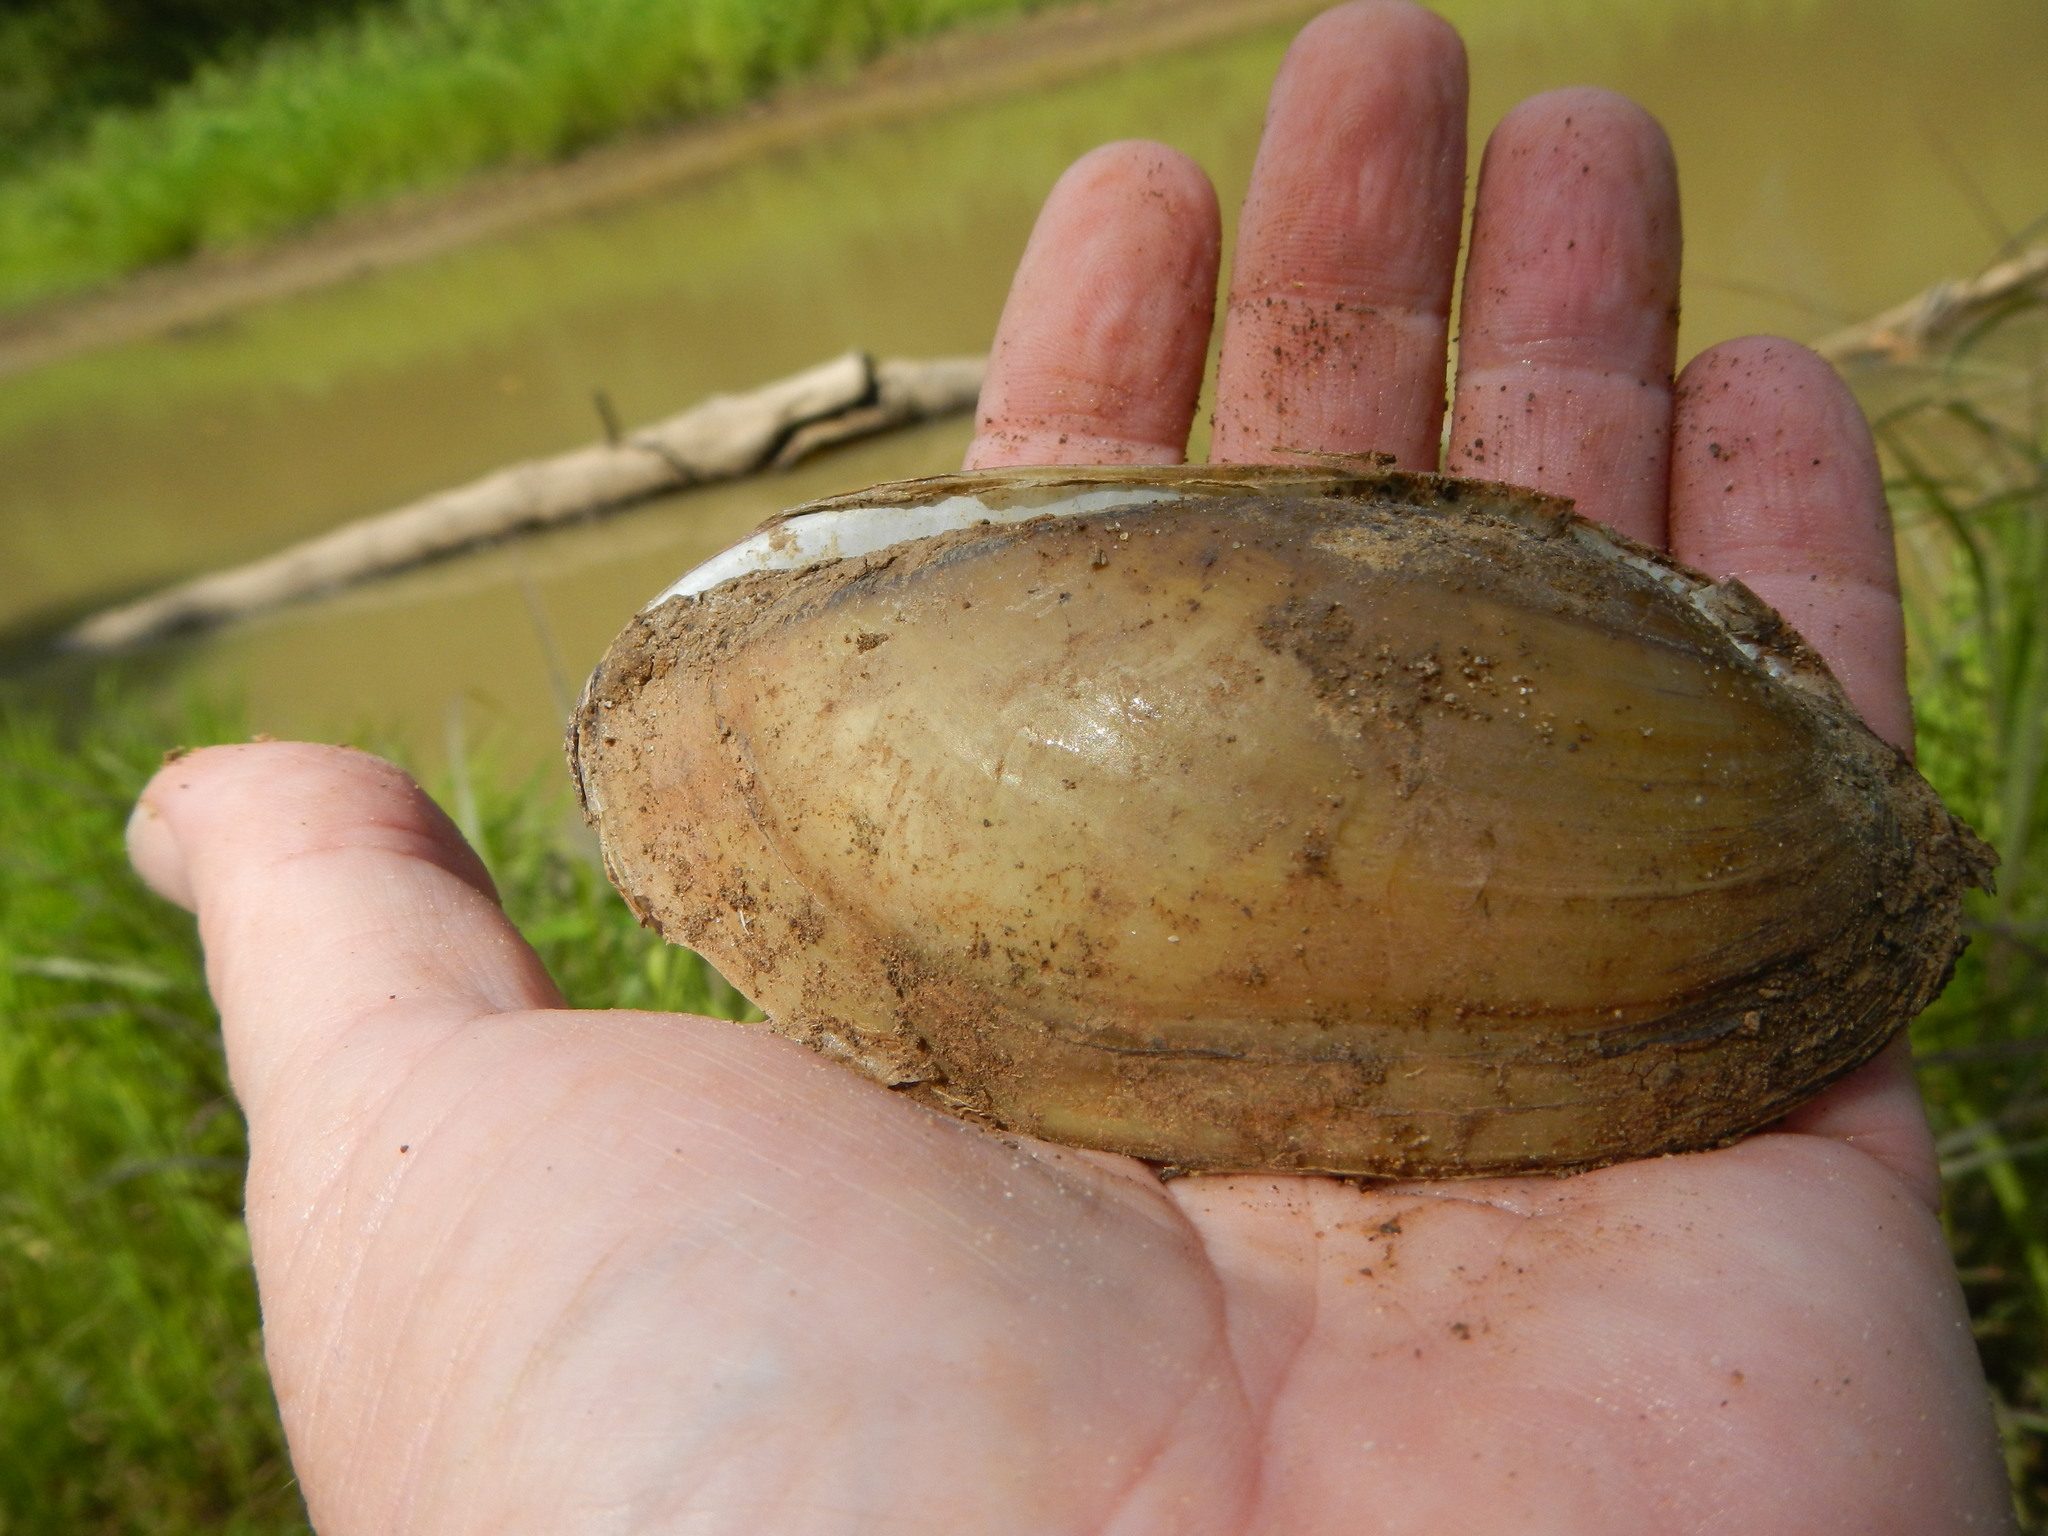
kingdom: Animalia
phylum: Mollusca
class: Bivalvia
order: Unionida
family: Unionidae
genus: Lampsilis
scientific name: Lampsilis teres
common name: Yellow sandshell
